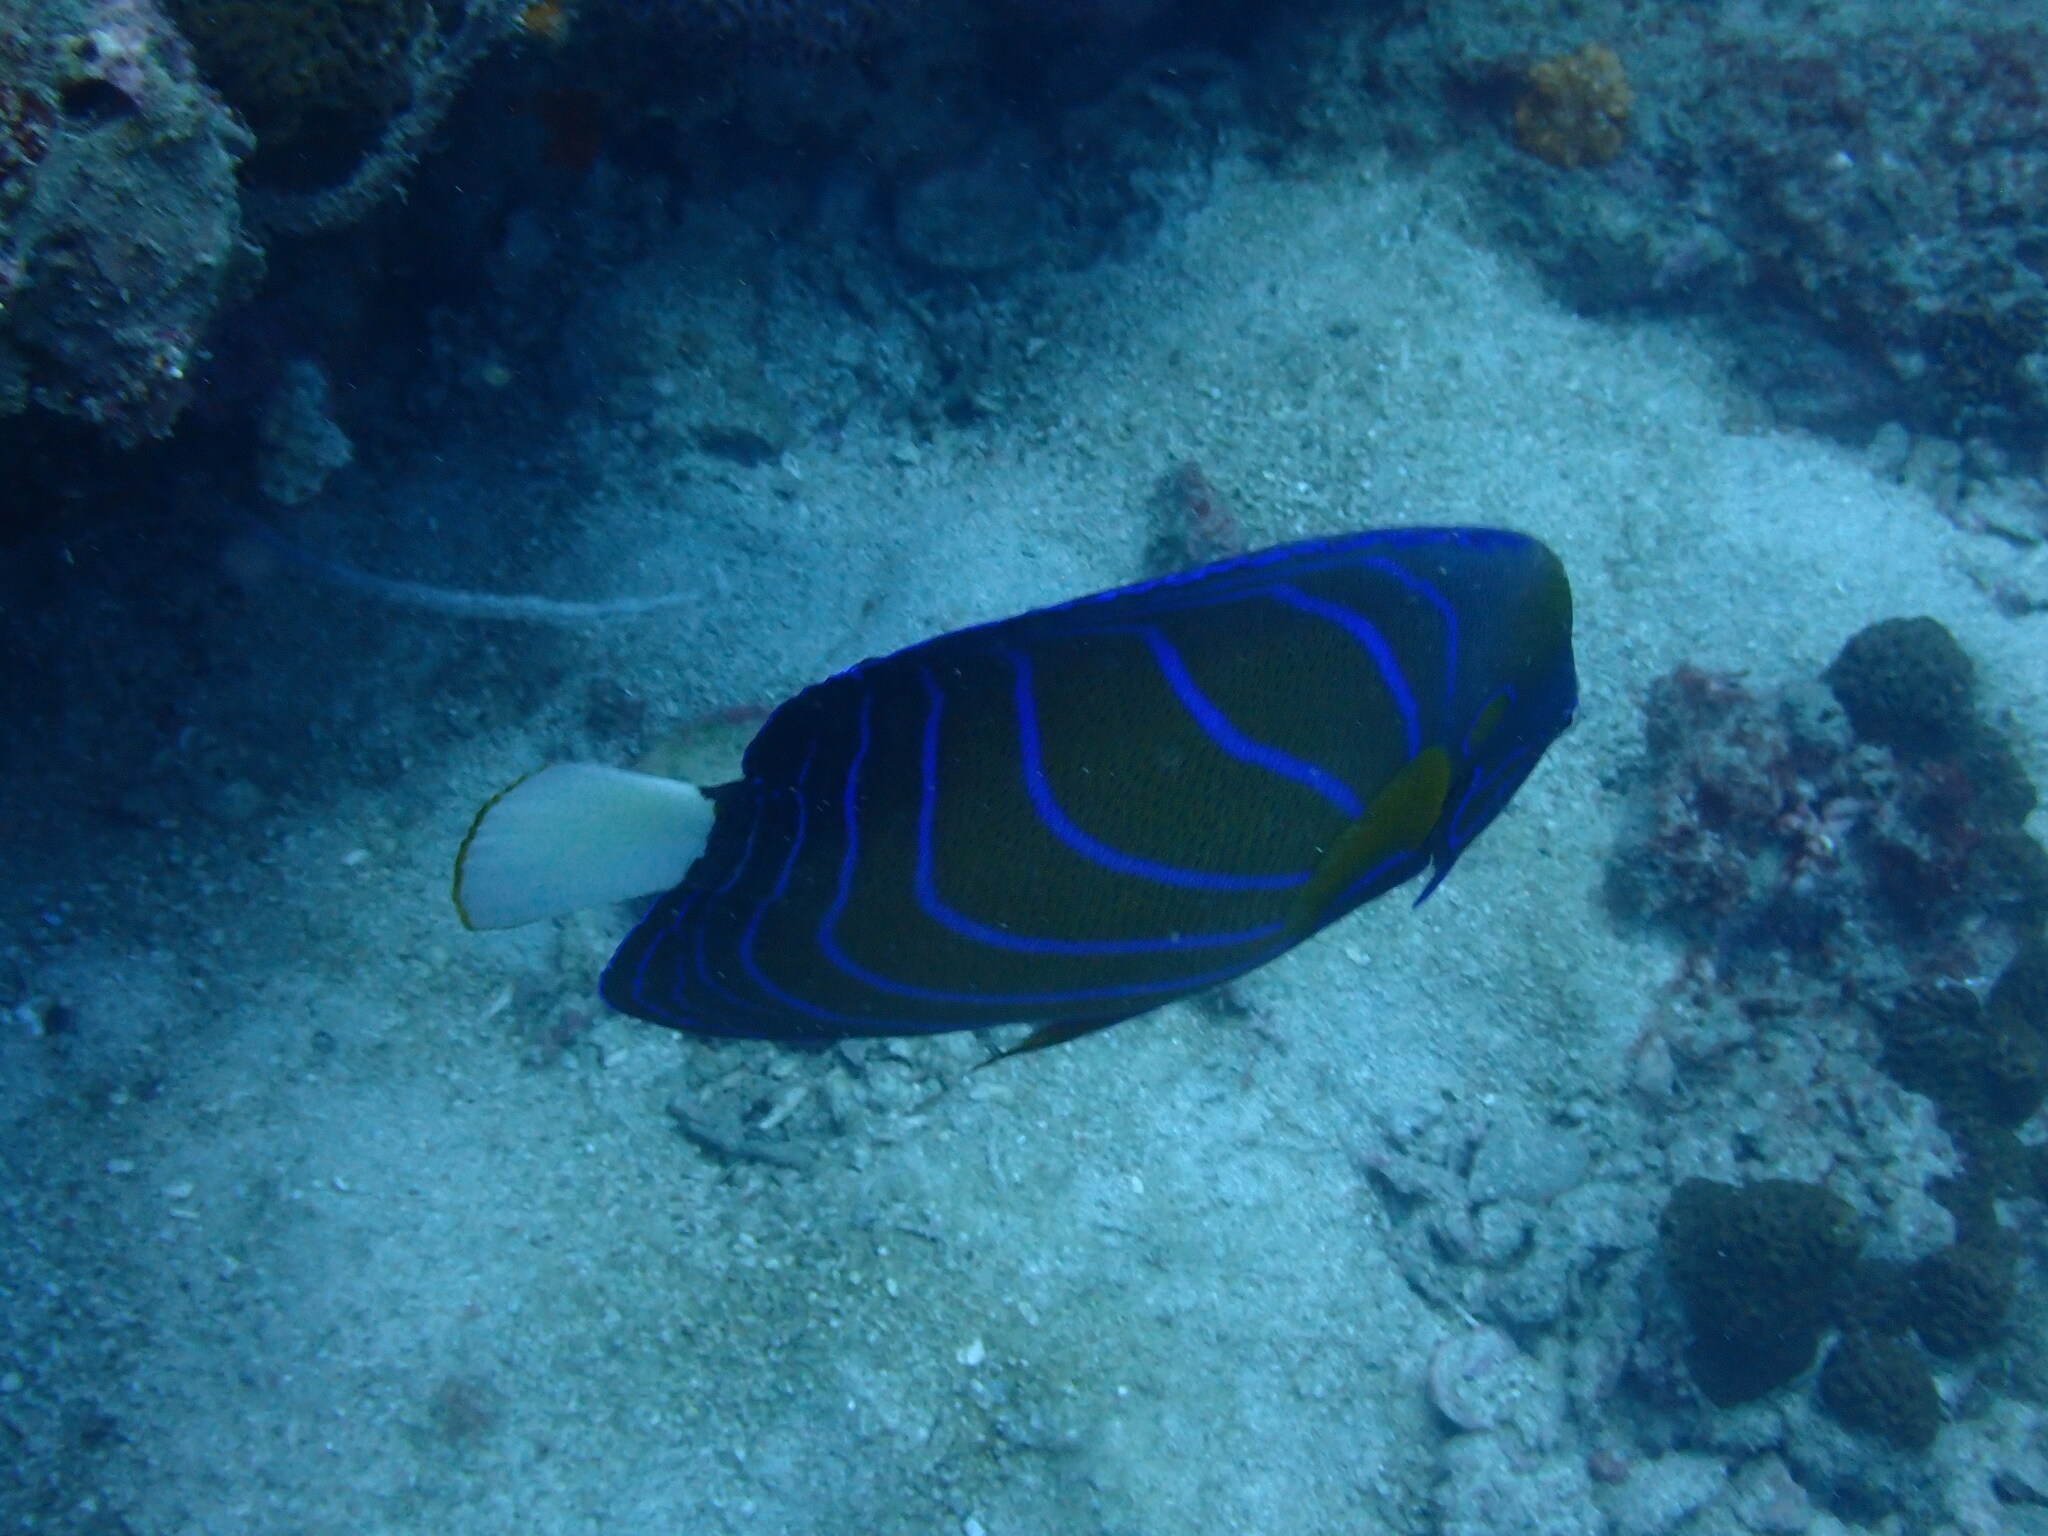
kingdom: Animalia
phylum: Chordata
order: Perciformes
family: Pomacanthidae
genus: Pomacanthus
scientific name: Pomacanthus annularis
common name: Bluering angelfish
